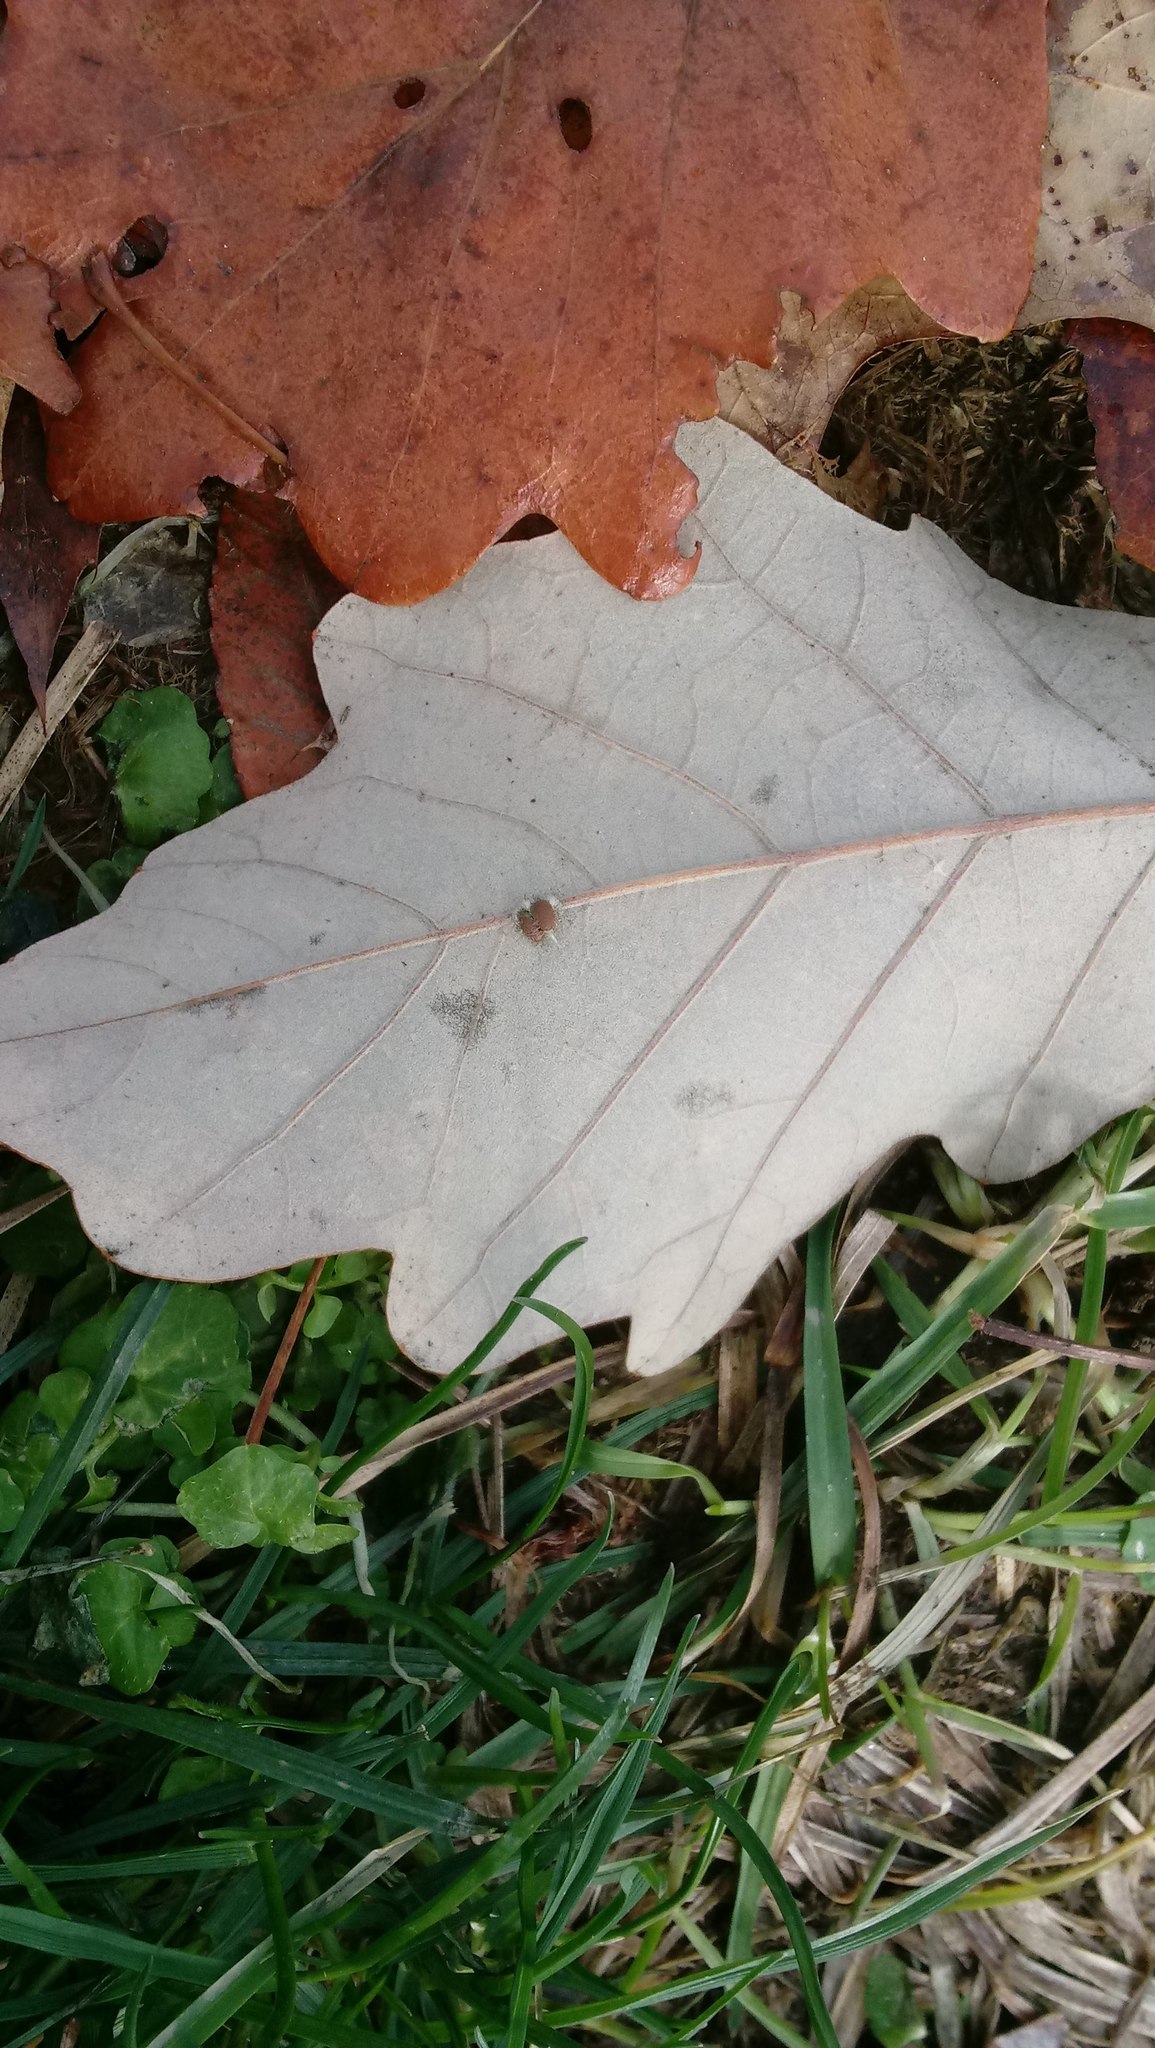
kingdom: Animalia
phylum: Arthropoda
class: Insecta
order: Hymenoptera
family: Cynipidae
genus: Andricus
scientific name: Andricus Druon ignotum
